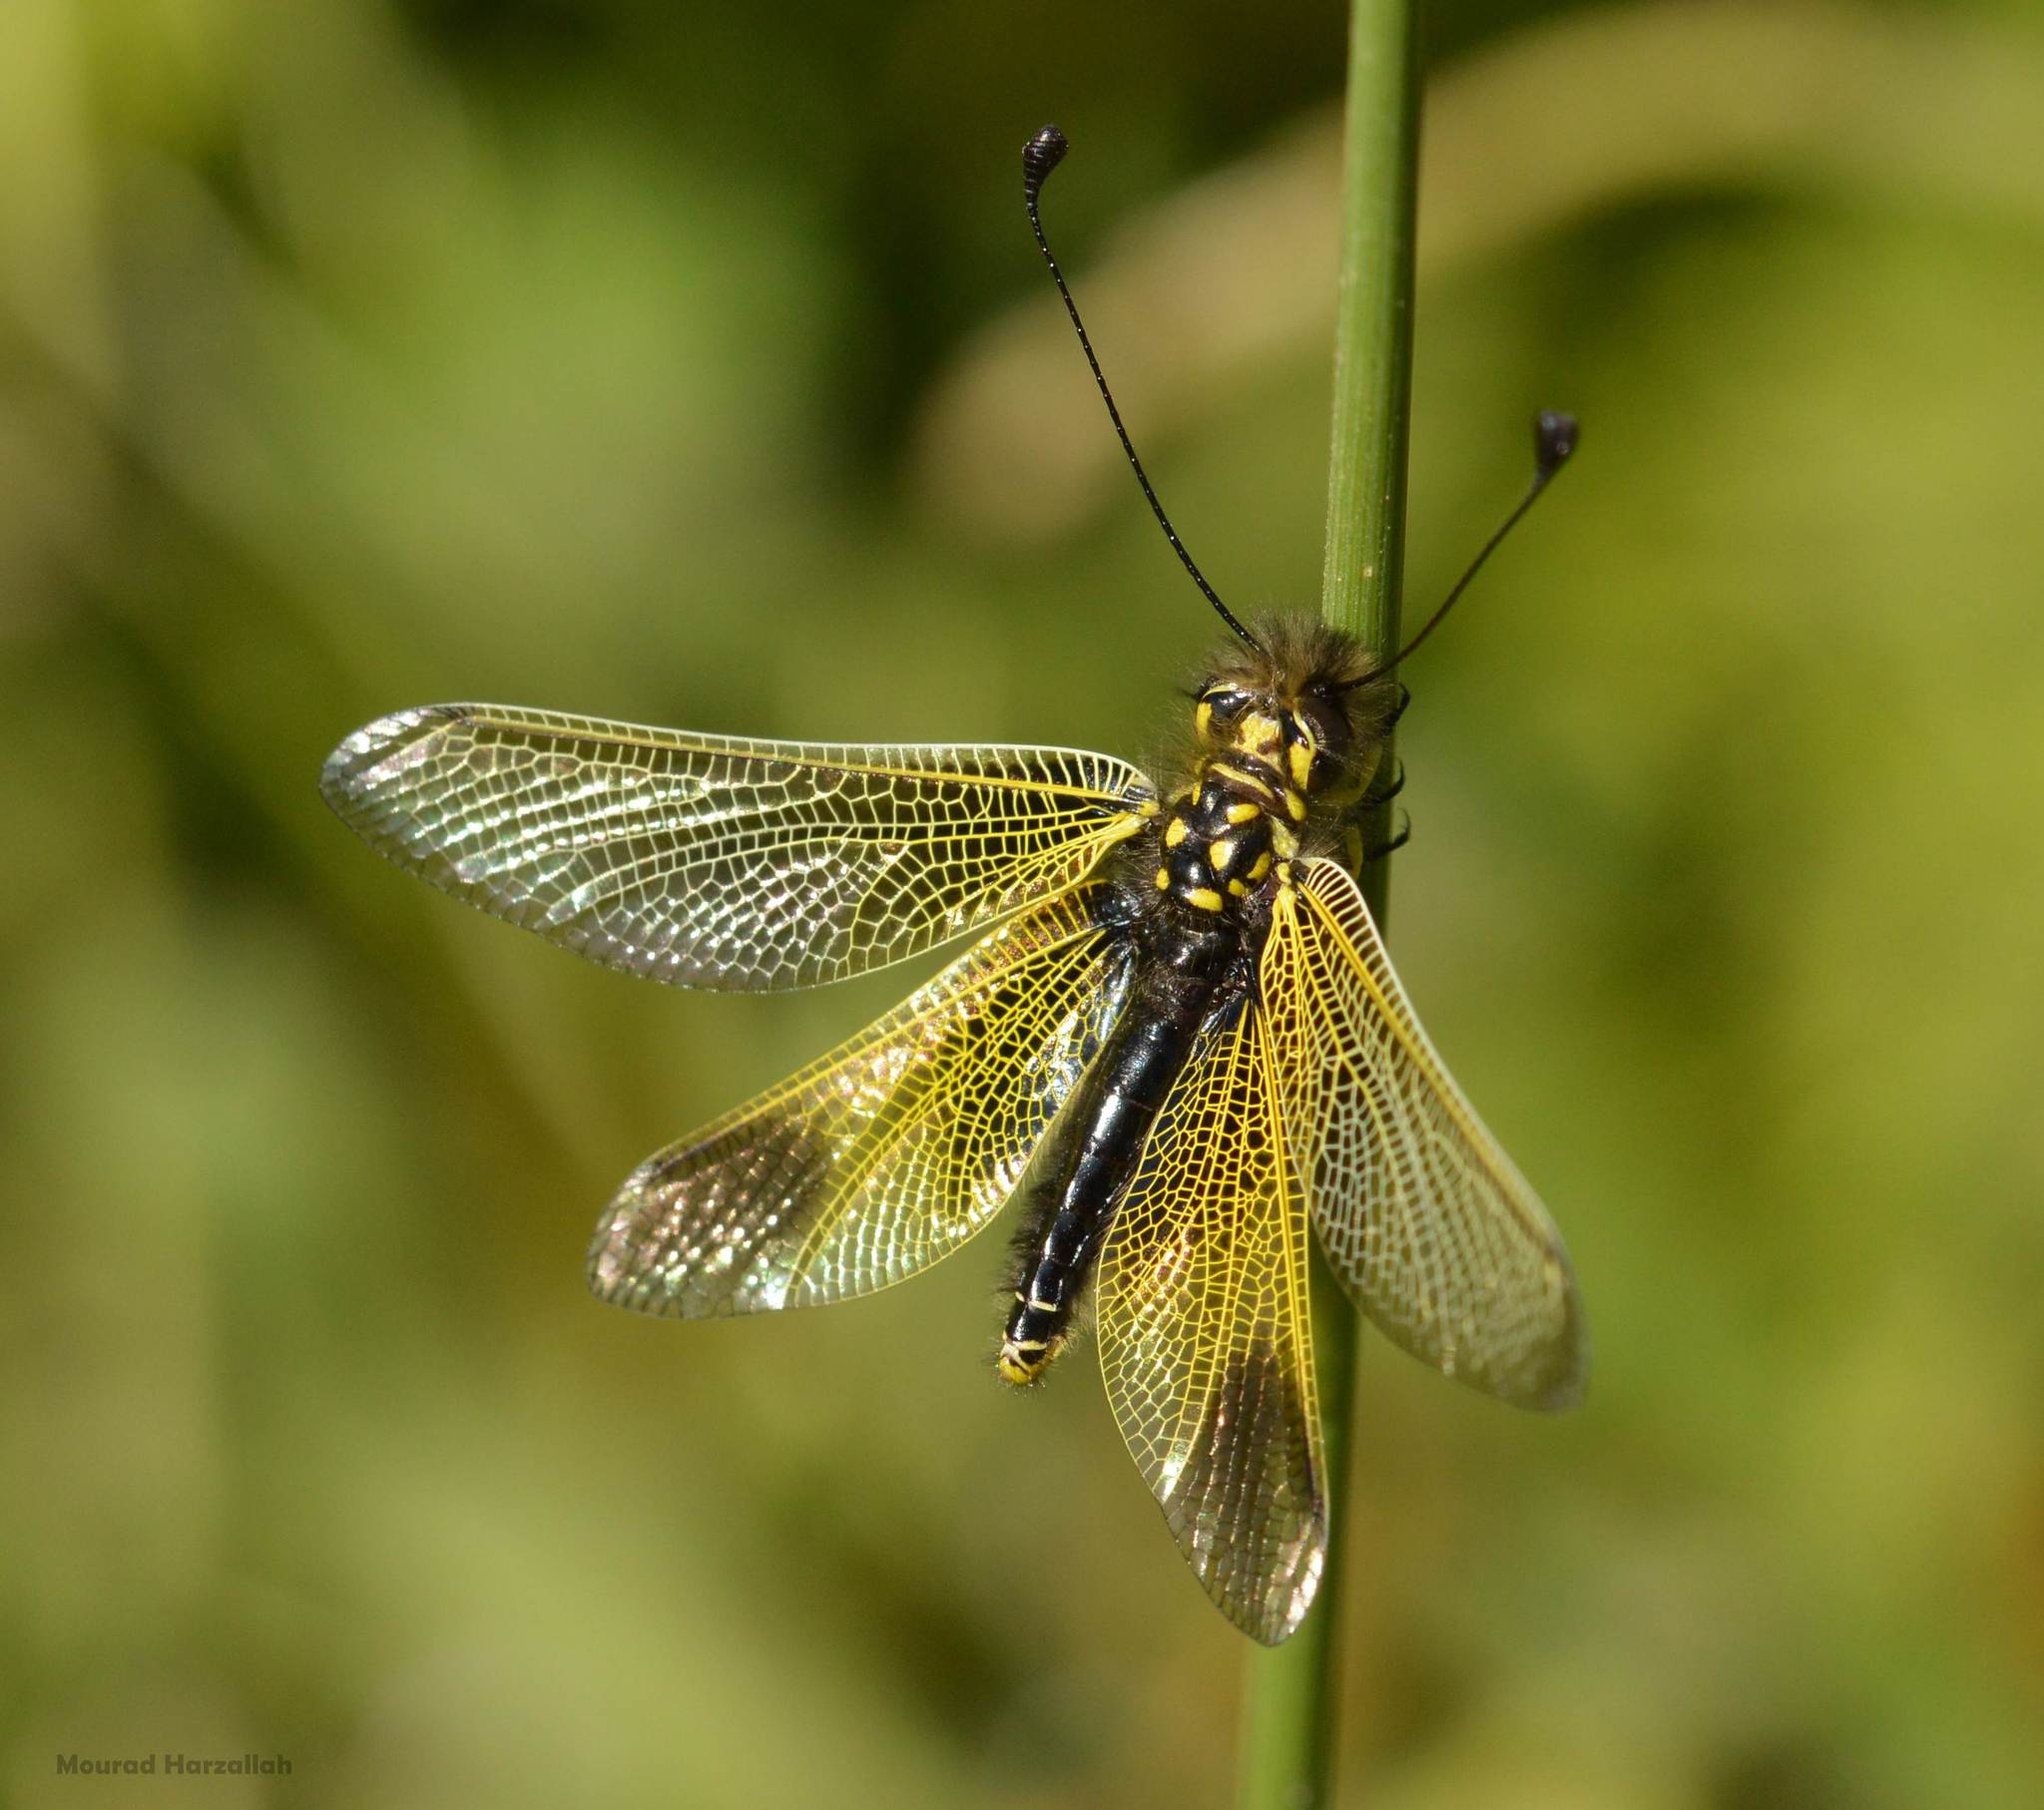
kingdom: Animalia
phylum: Arthropoda
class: Insecta
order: Neuroptera
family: Ascalaphidae
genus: Libelloides
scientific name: Libelloides ictericus
